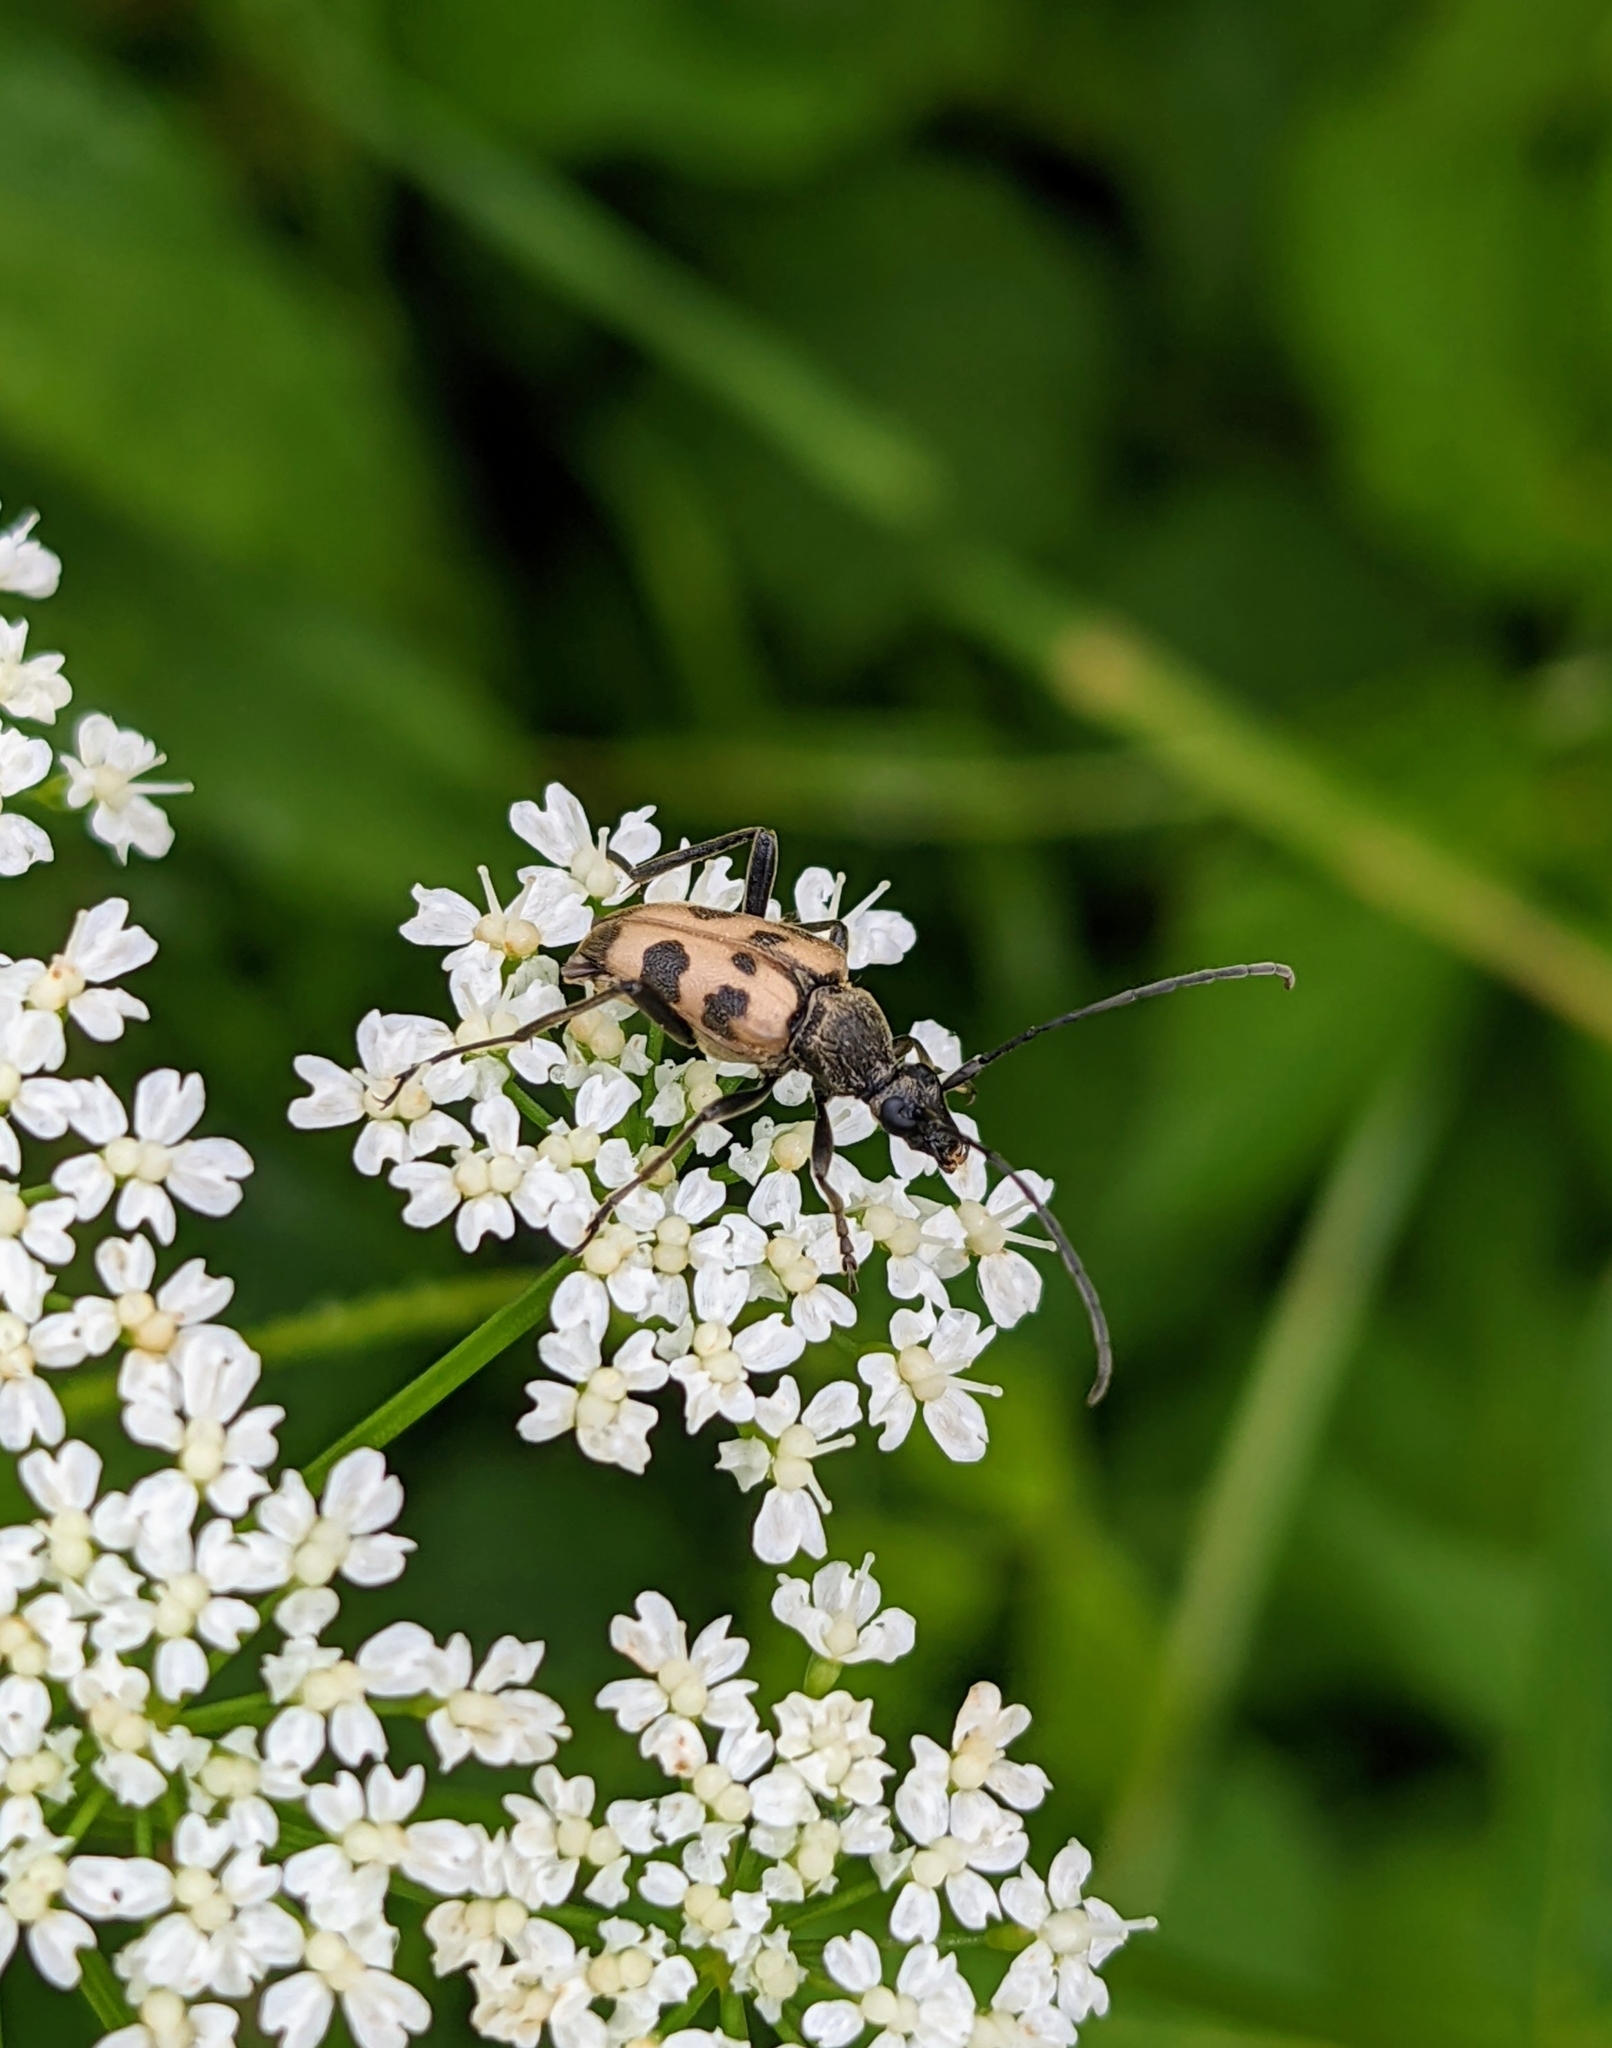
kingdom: Animalia
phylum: Arthropoda
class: Insecta
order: Coleoptera
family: Cerambycidae
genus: Pachytodes
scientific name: Pachytodes cerambyciformis
